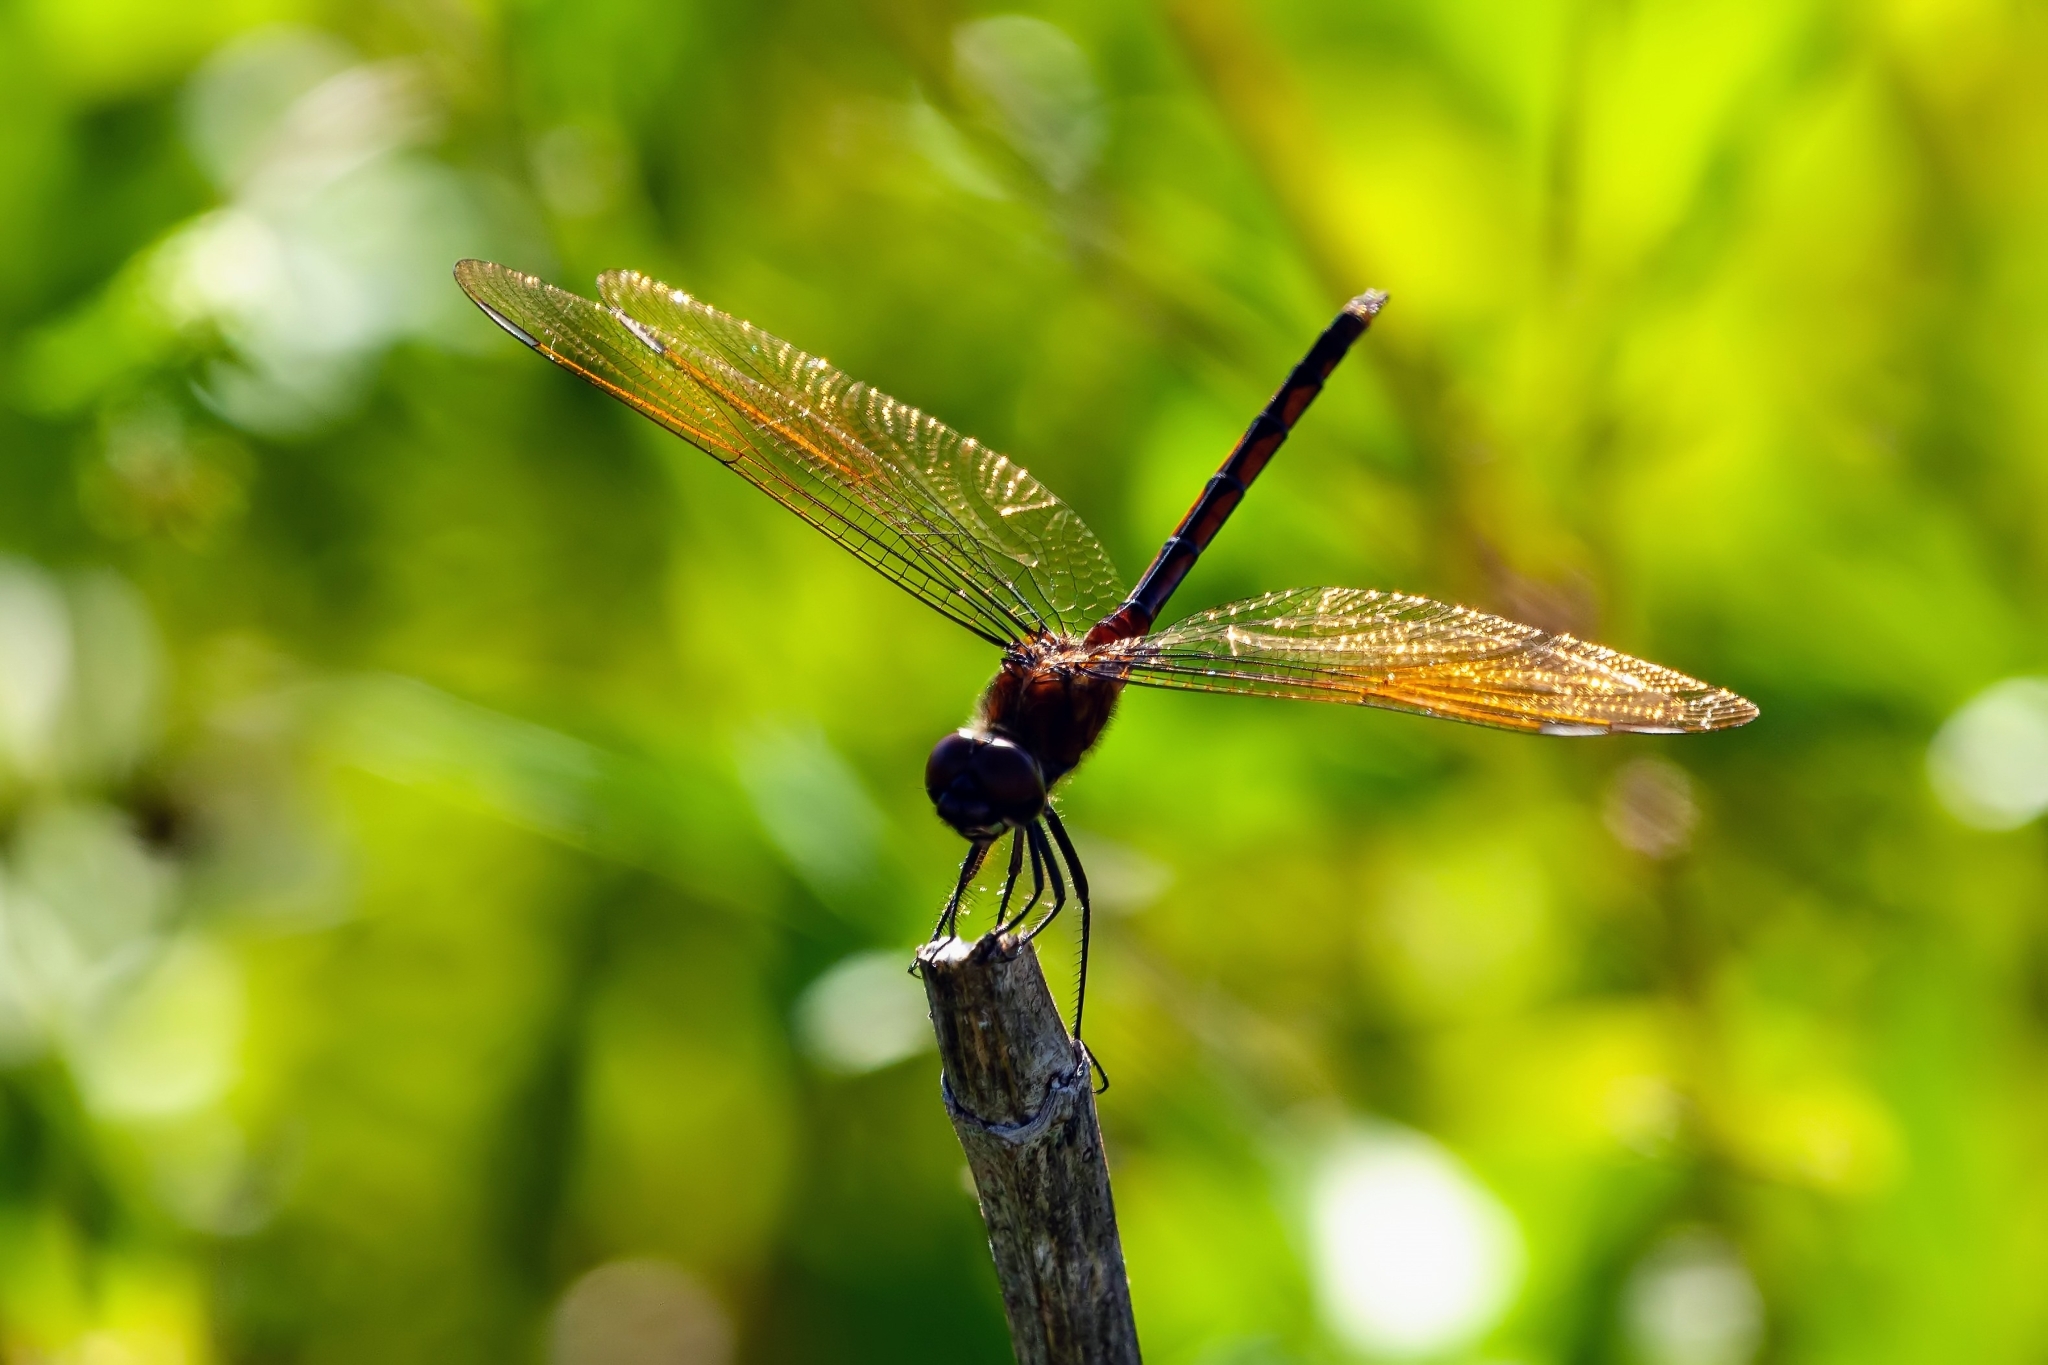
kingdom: Animalia
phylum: Arthropoda
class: Insecta
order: Odonata
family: Libellulidae
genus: Brachymesia
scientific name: Brachymesia gravida
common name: Four-spotted pennant
